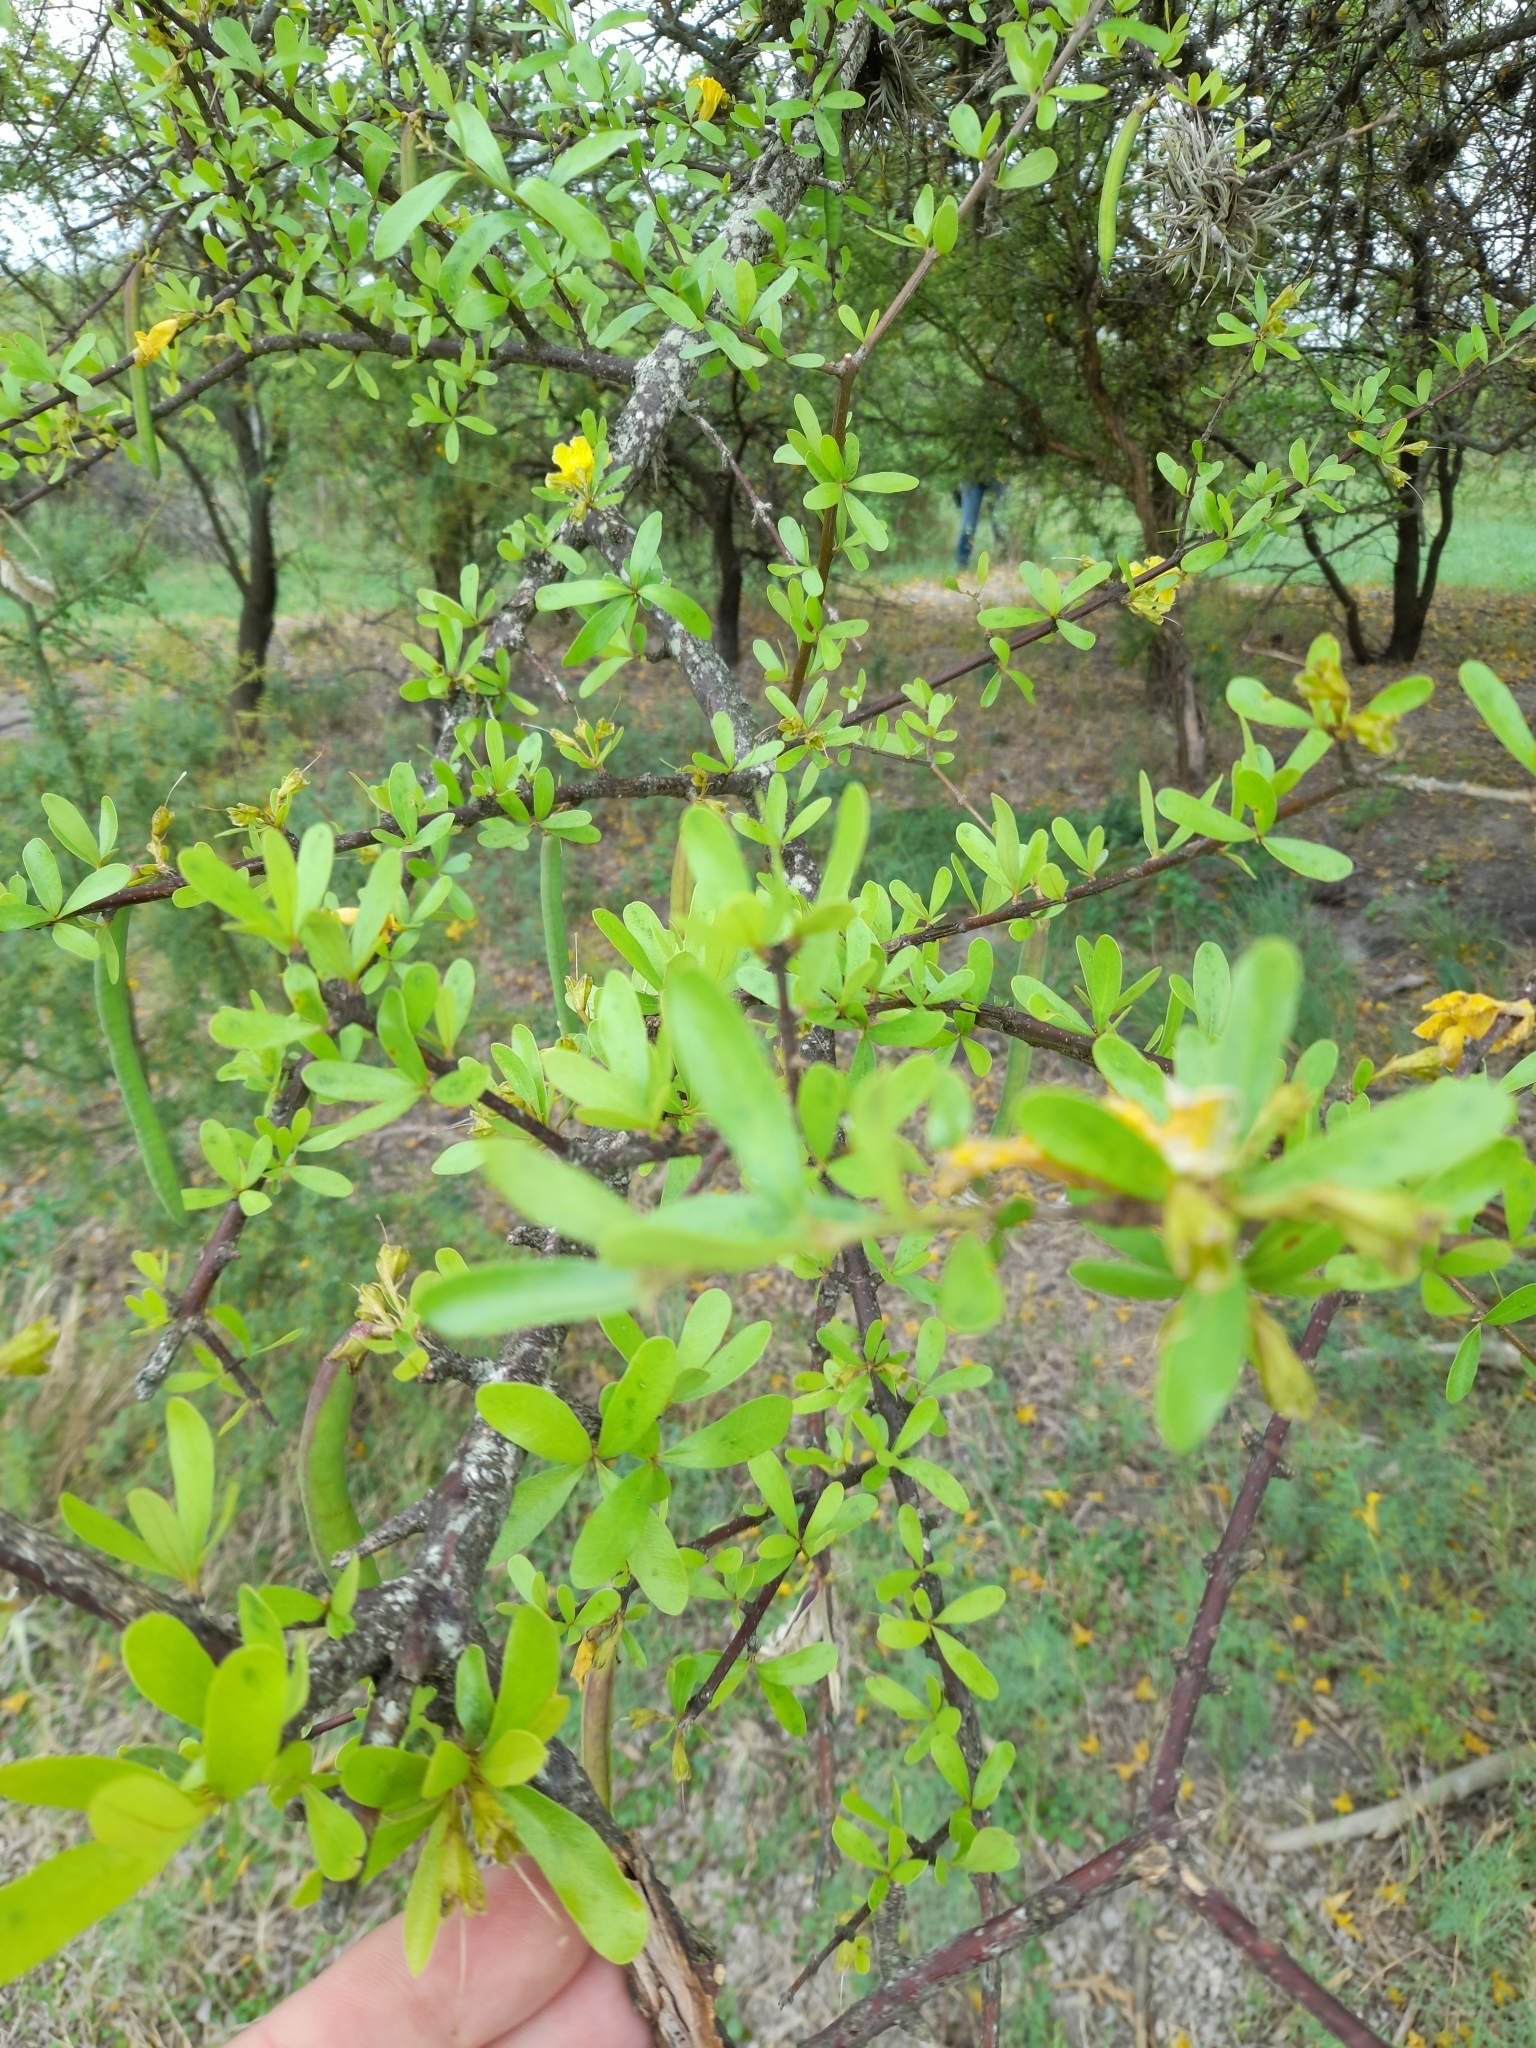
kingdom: Plantae
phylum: Tracheophyta
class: Magnoliopsida
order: Lamiales
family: Bignoniaceae
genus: Tabebuia
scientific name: Tabebuia nodosa
